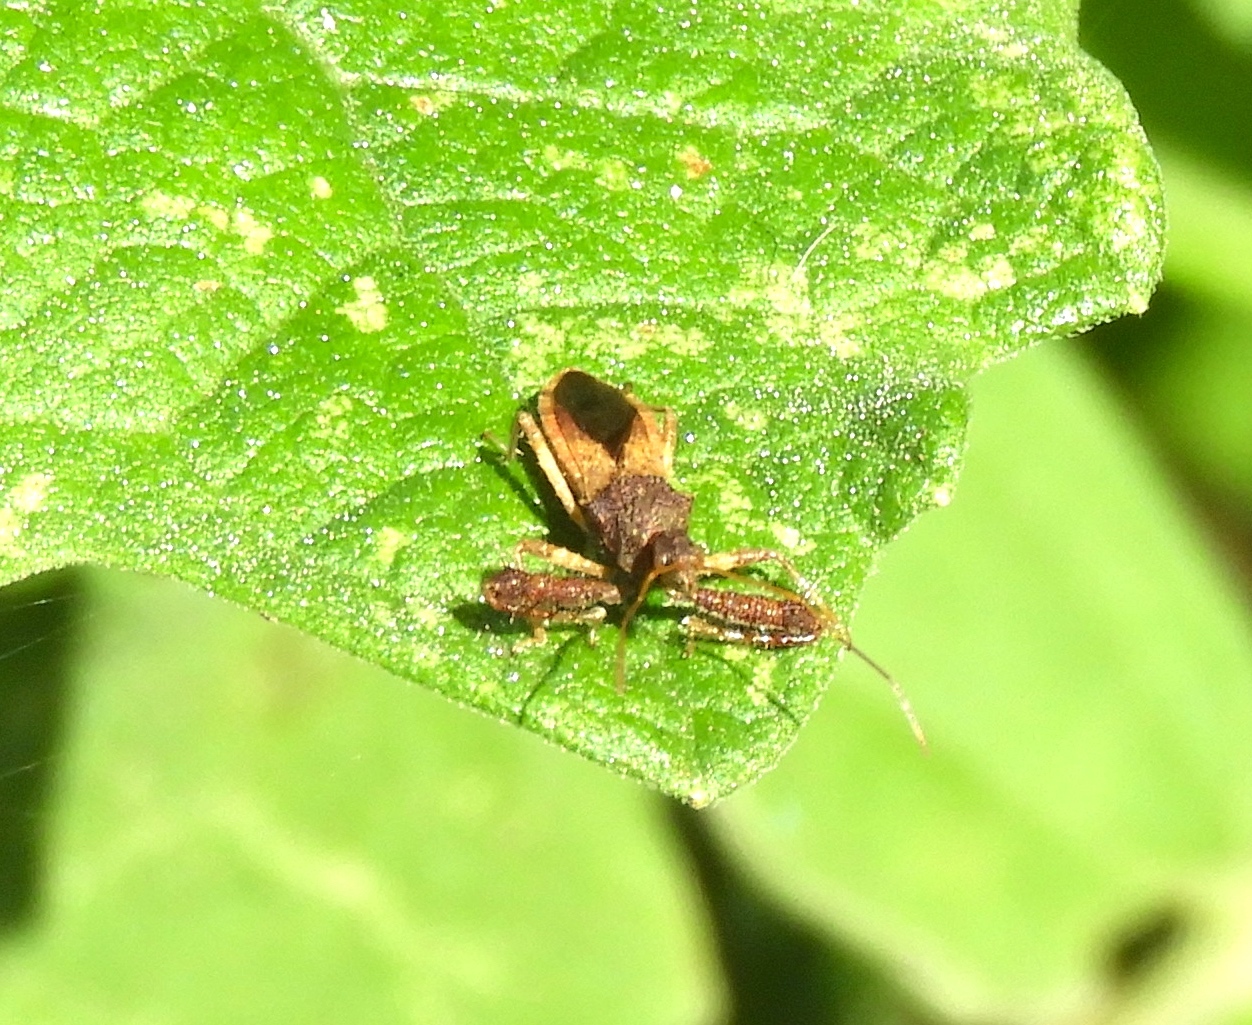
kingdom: Animalia
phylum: Arthropoda
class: Insecta
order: Hemiptera
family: Reduviidae
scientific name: Reduviidae
